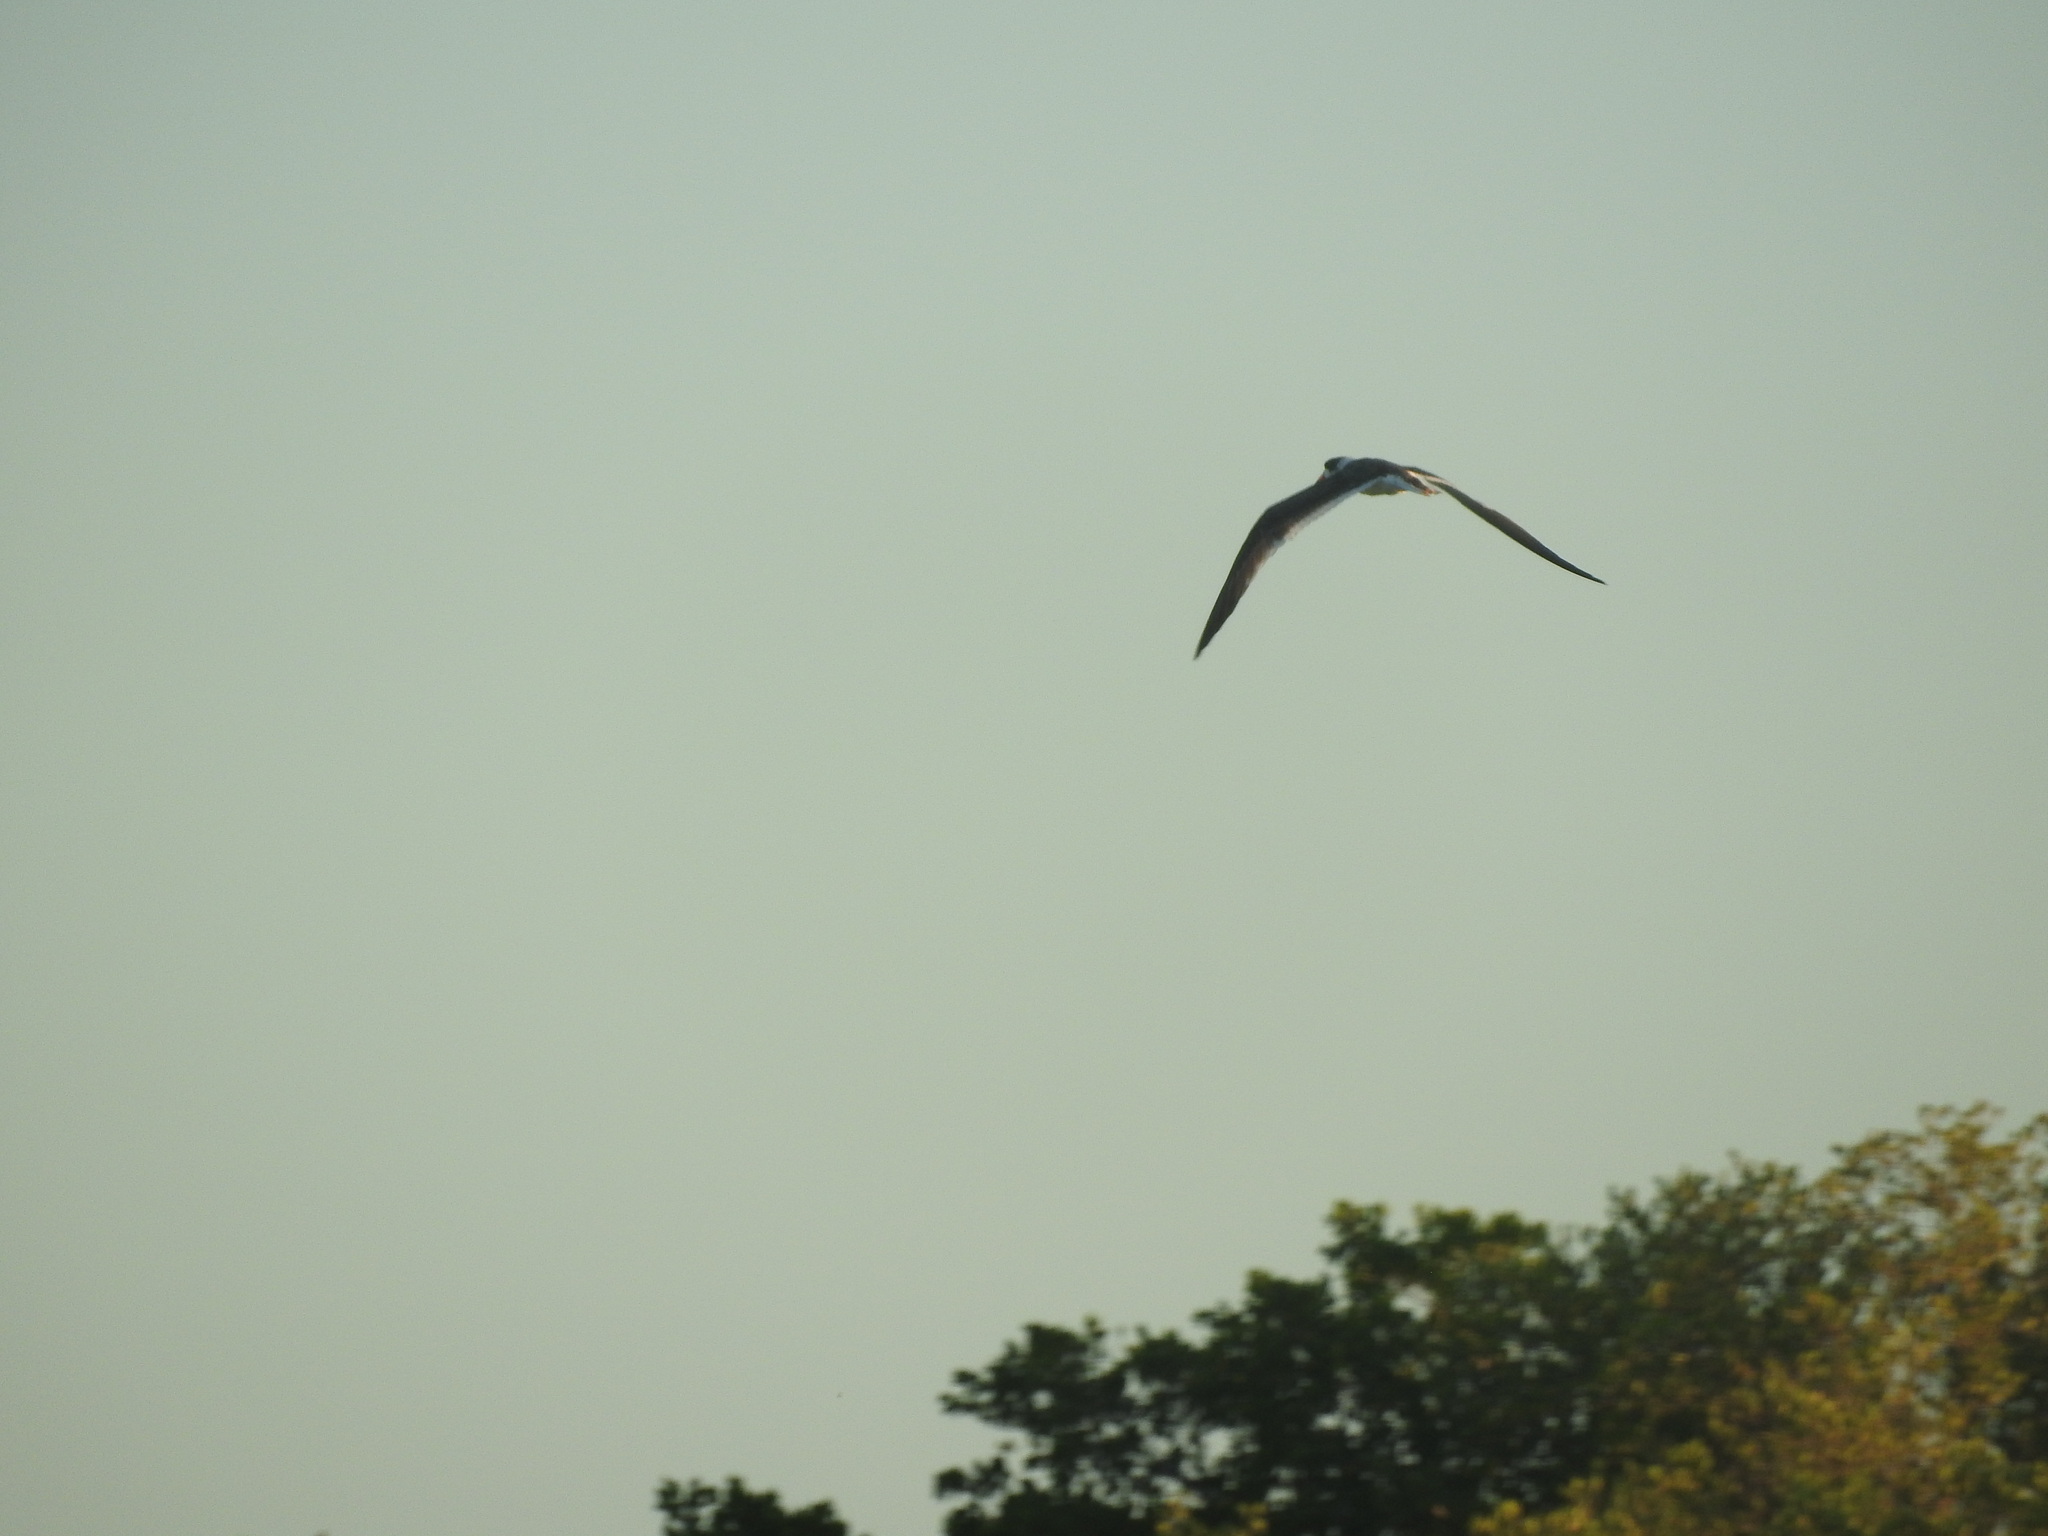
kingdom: Animalia
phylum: Chordata
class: Aves
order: Charadriiformes
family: Laridae
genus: Rynchops
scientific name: Rynchops niger
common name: Black skimmer
